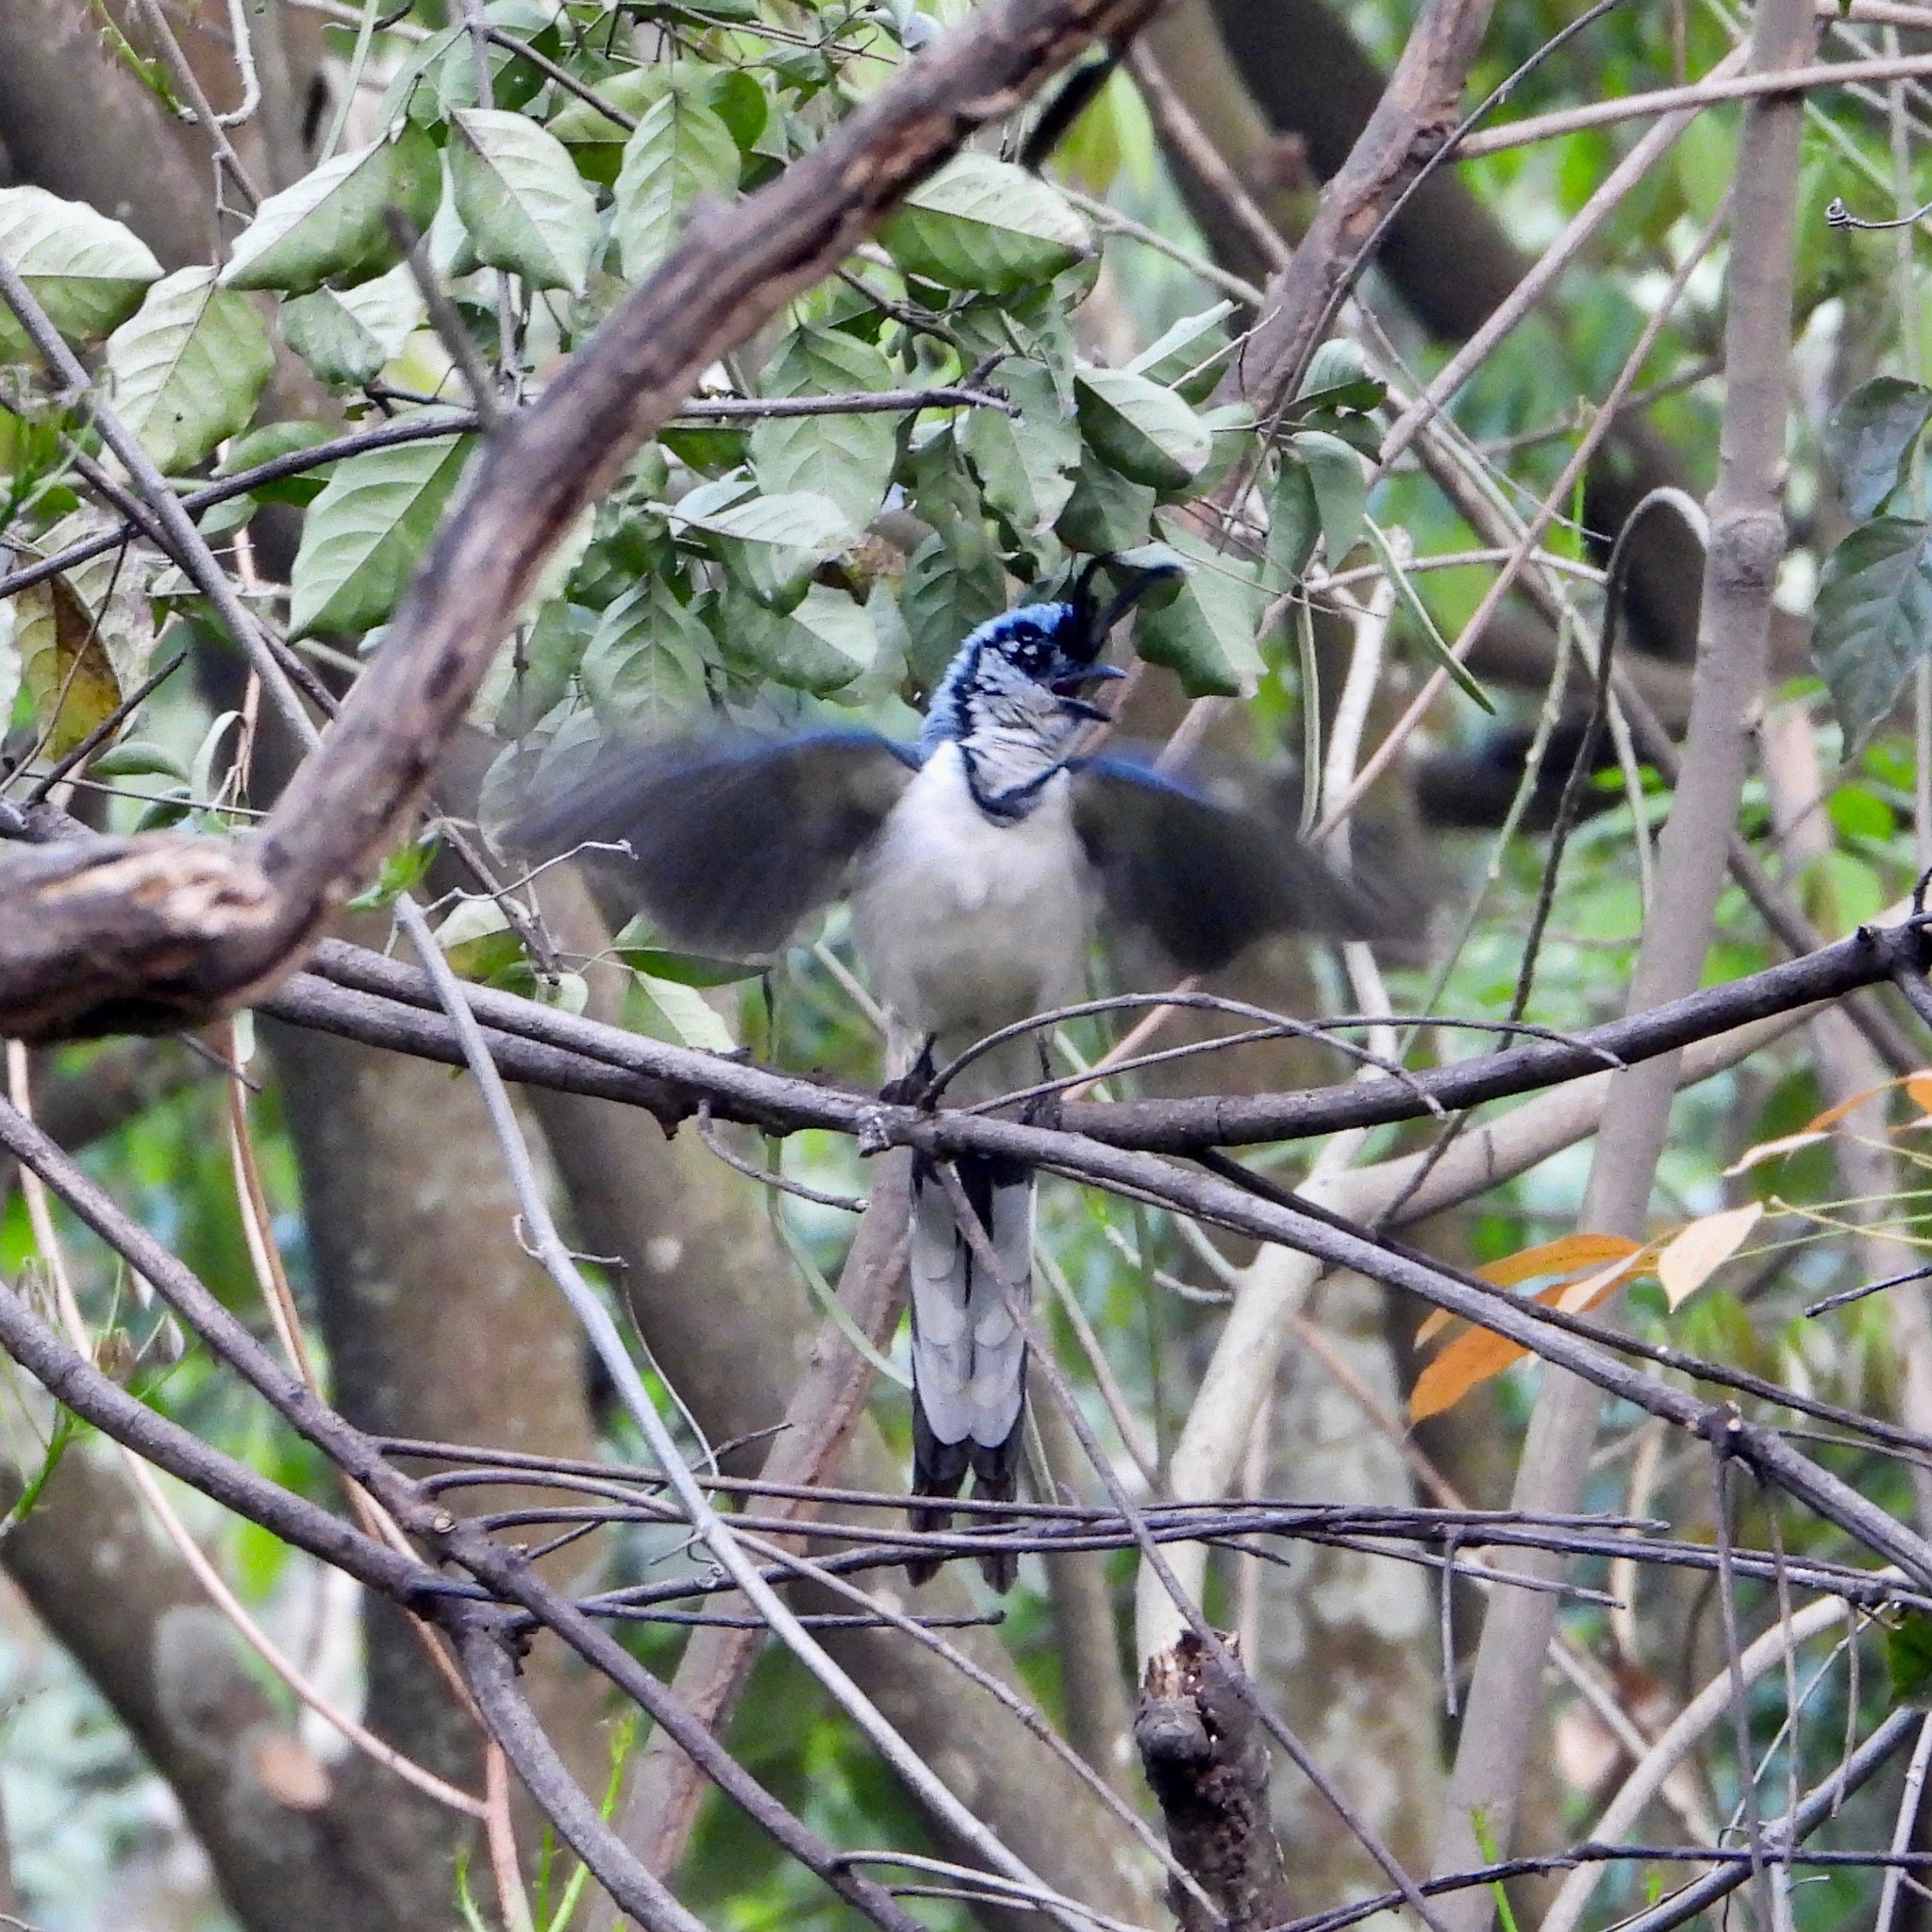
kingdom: Animalia
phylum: Chordata
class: Aves
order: Passeriformes
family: Corvidae
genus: Calocitta
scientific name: Calocitta formosa
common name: White-throated magpie-jay
